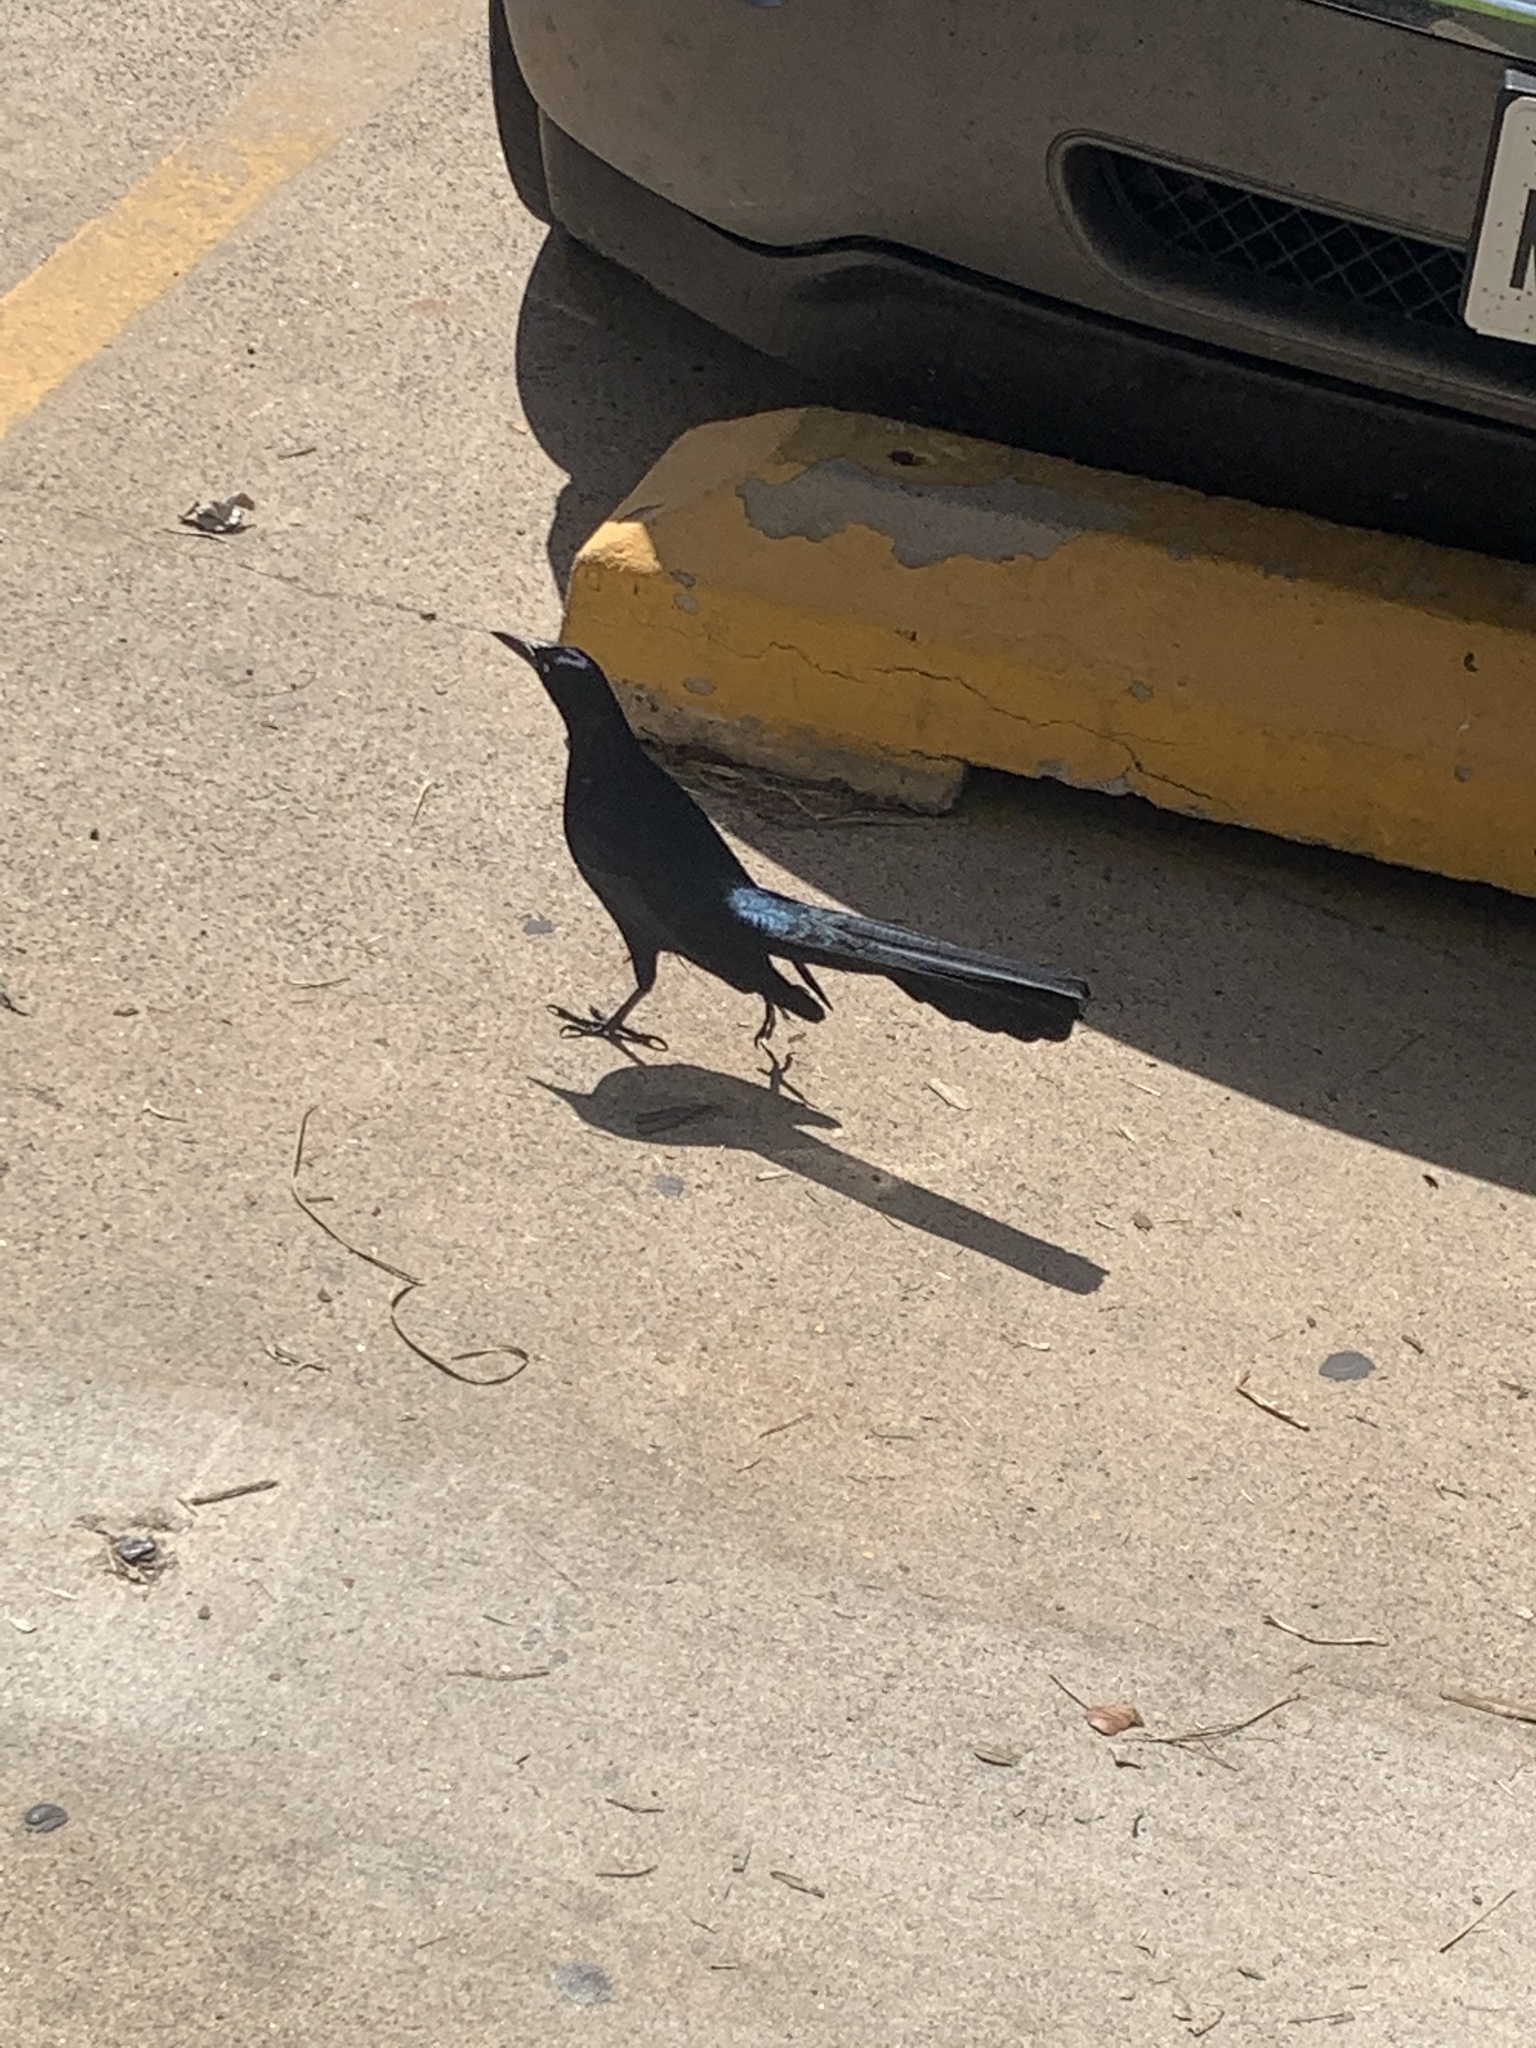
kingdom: Animalia
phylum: Chordata
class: Aves
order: Passeriformes
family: Icteridae
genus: Quiscalus
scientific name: Quiscalus mexicanus
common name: Great-tailed grackle
